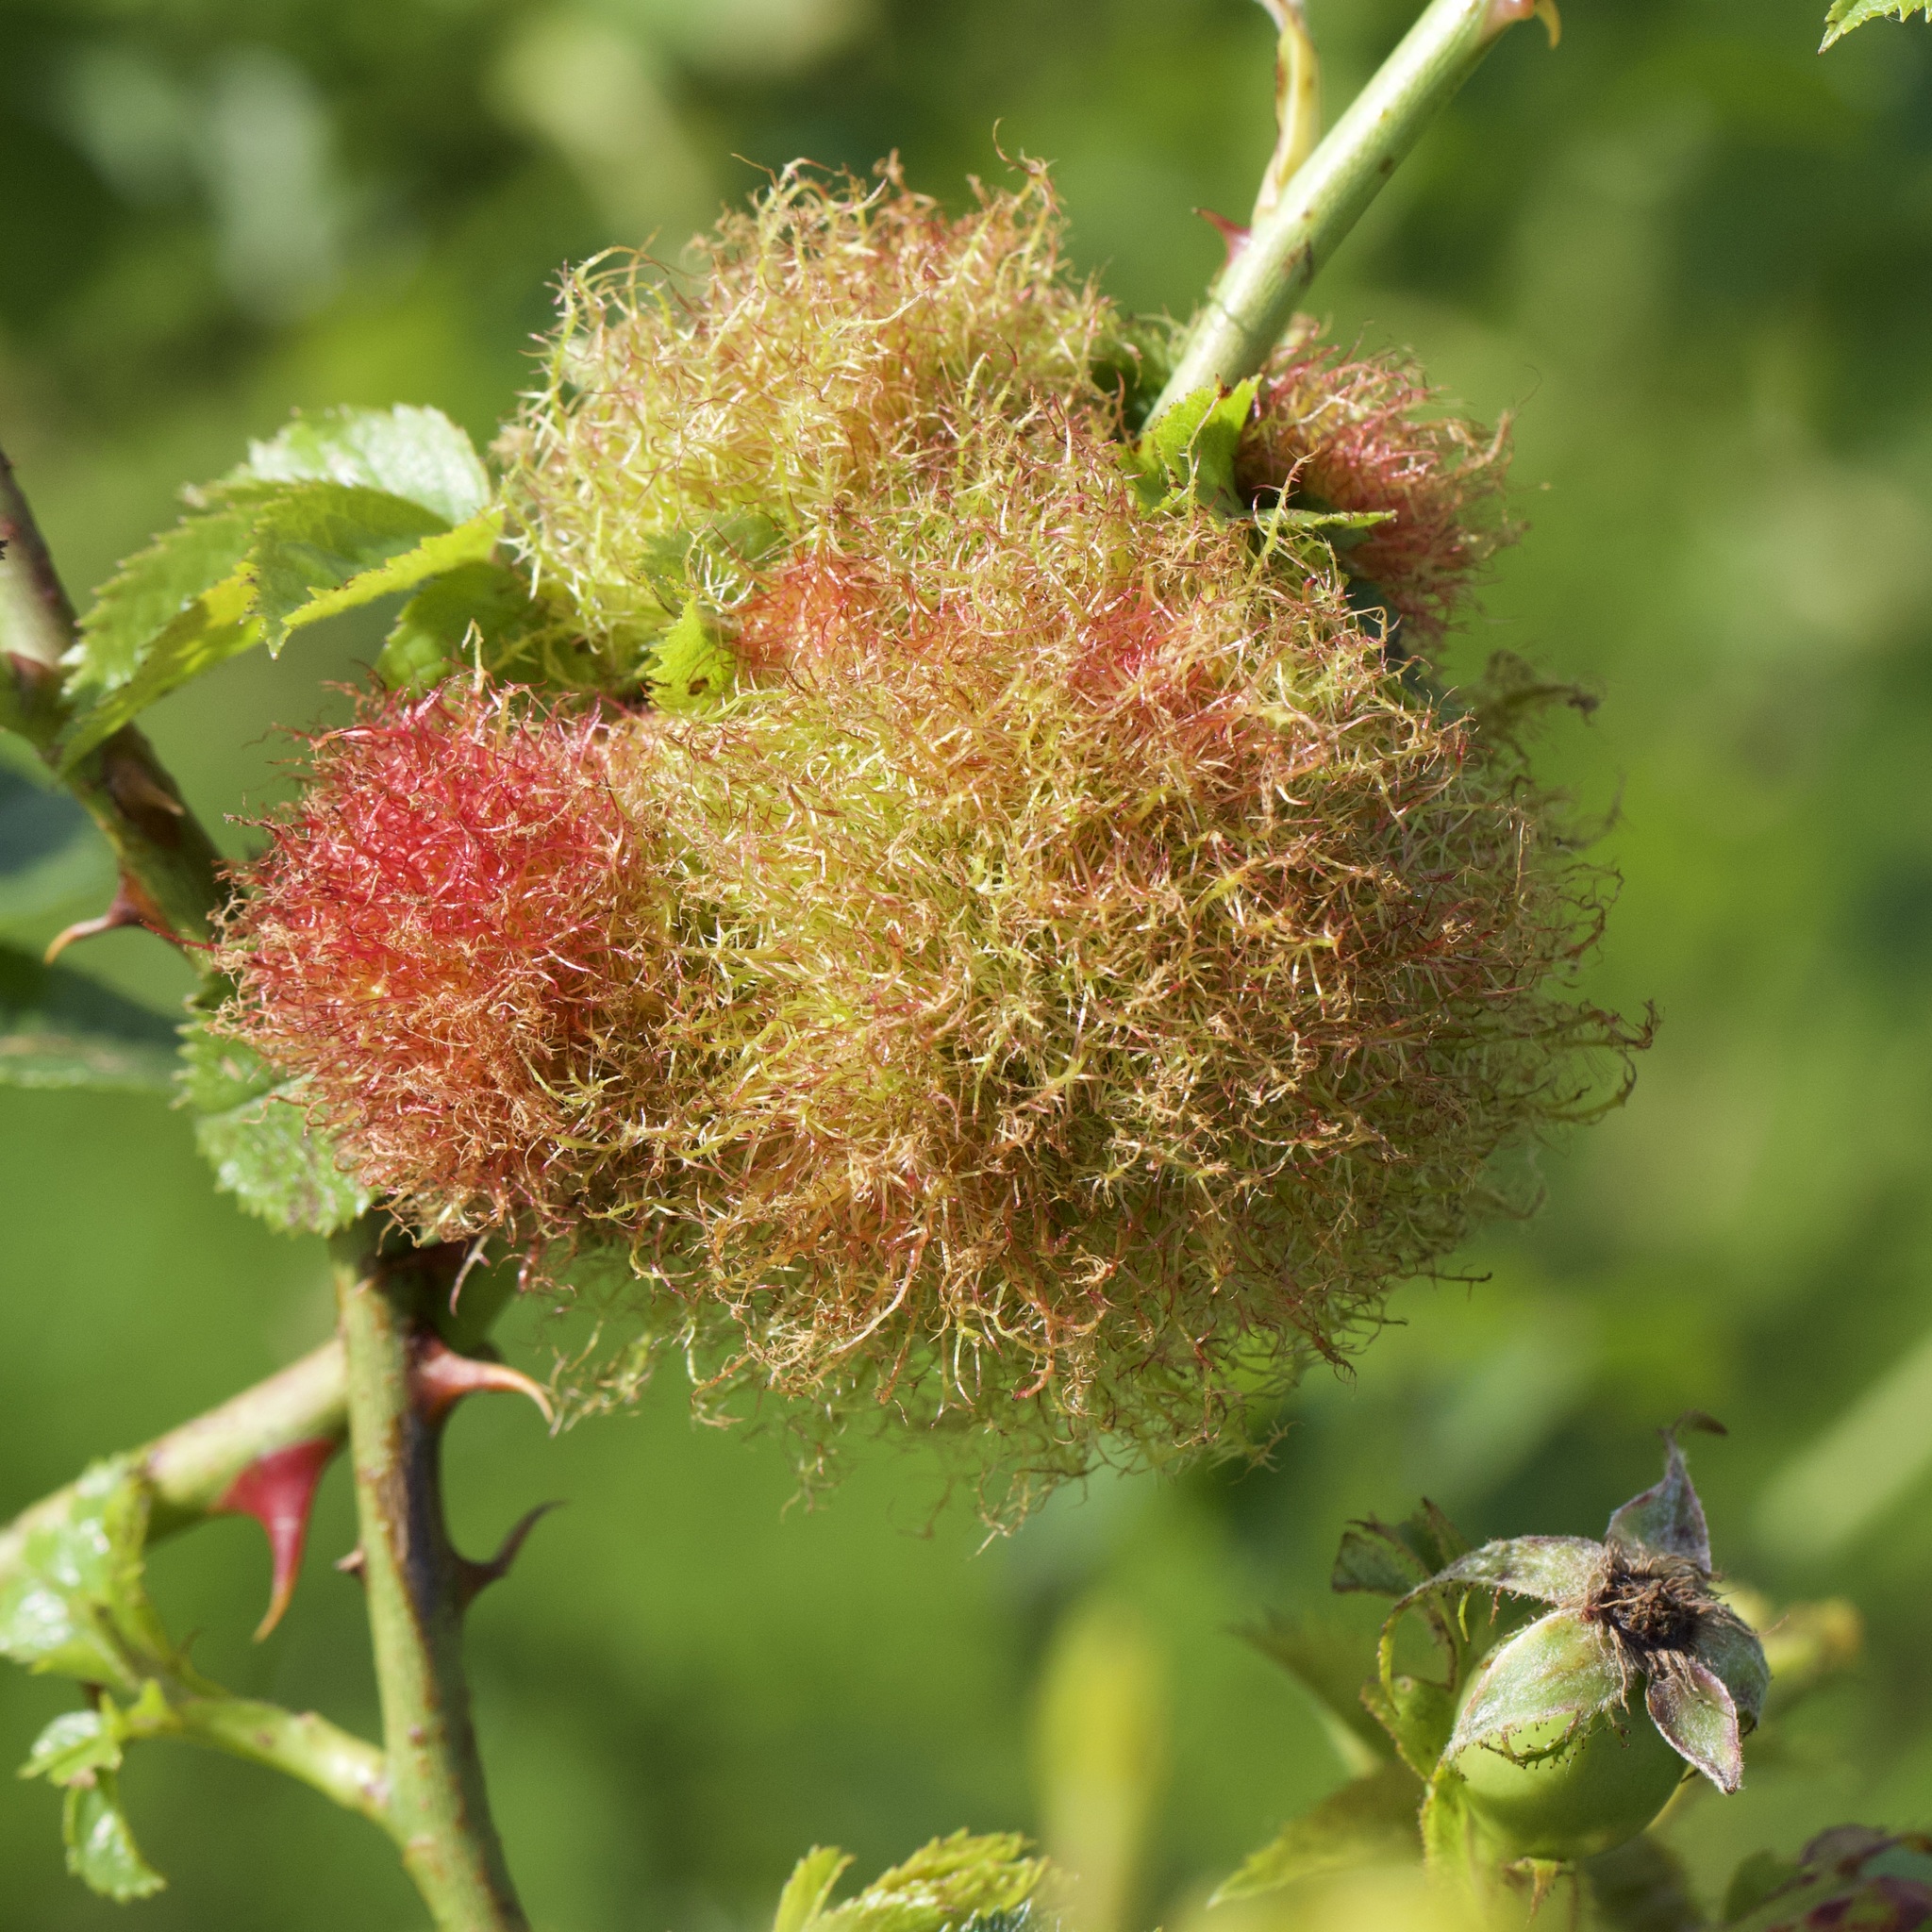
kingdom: Animalia
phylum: Arthropoda
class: Insecta
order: Hymenoptera
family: Cynipidae
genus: Diplolepis
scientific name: Diplolepis rosae
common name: Bedeguar gall
